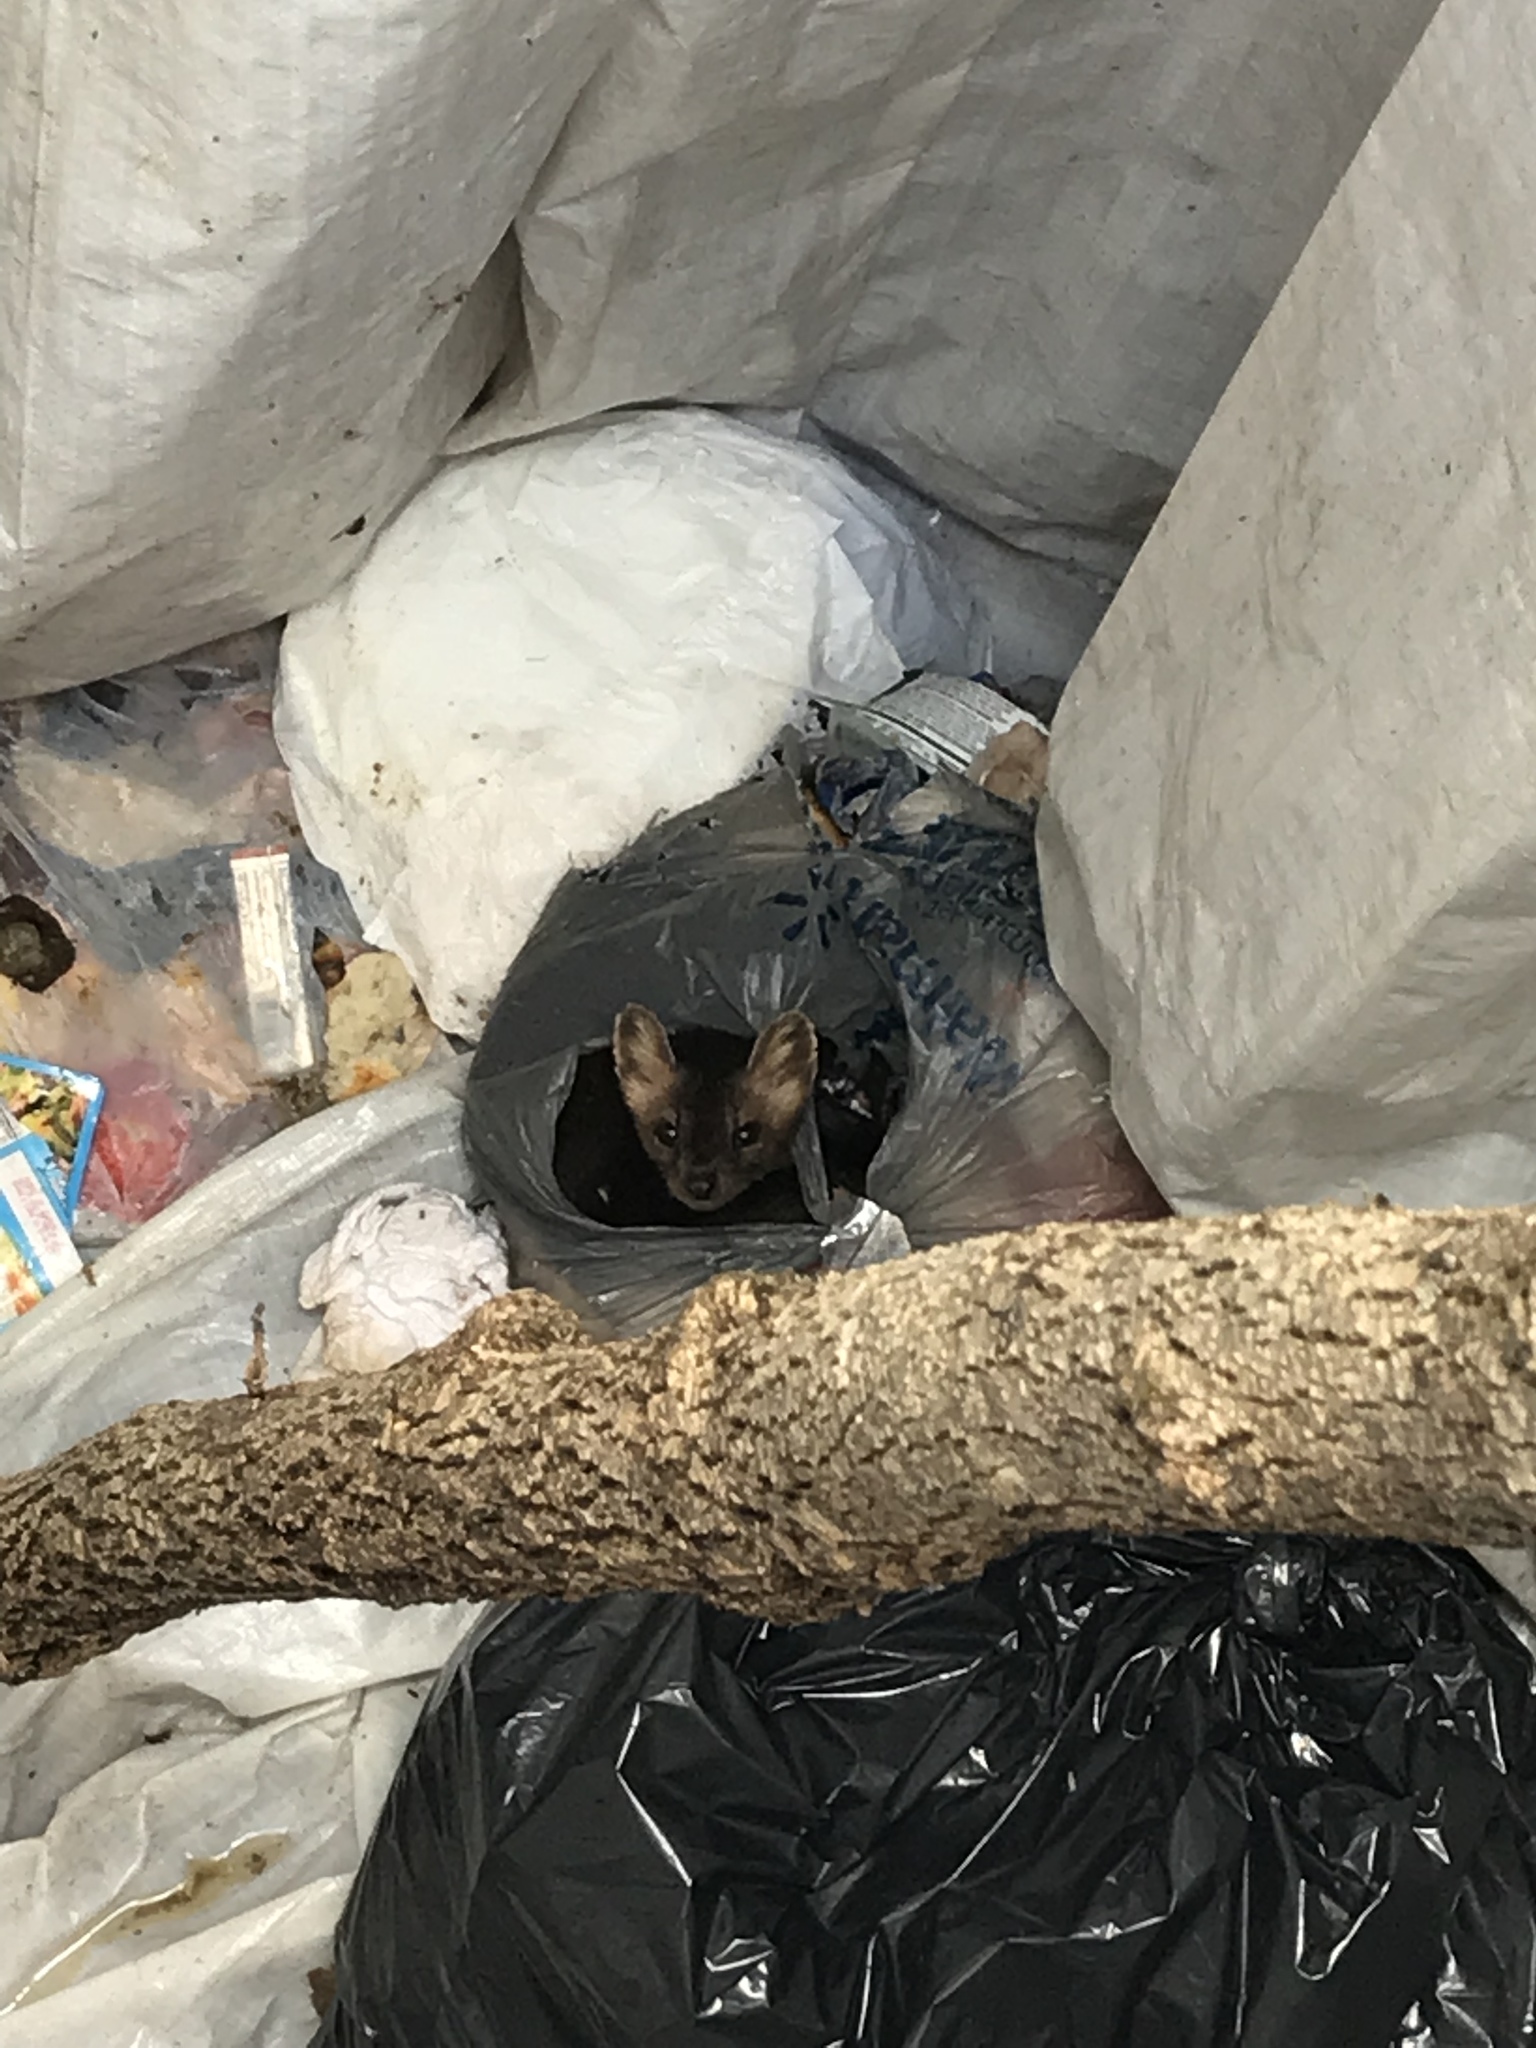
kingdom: Animalia
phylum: Chordata
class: Mammalia
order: Carnivora
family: Mustelidae
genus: Martes
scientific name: Martes americana
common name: American marten
